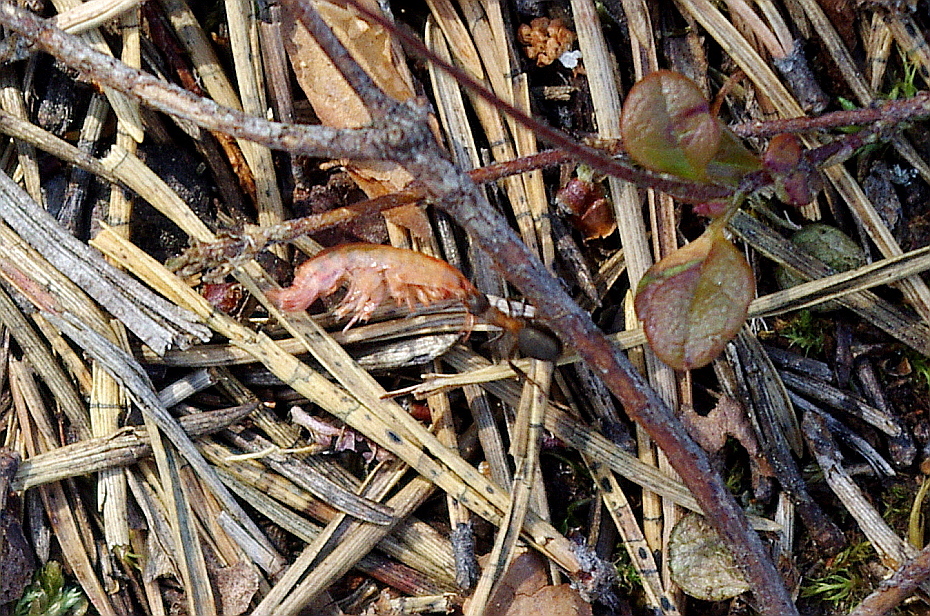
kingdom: Animalia
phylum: Arthropoda
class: Insecta
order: Hymenoptera
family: Formicidae
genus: Formica
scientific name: Formica
